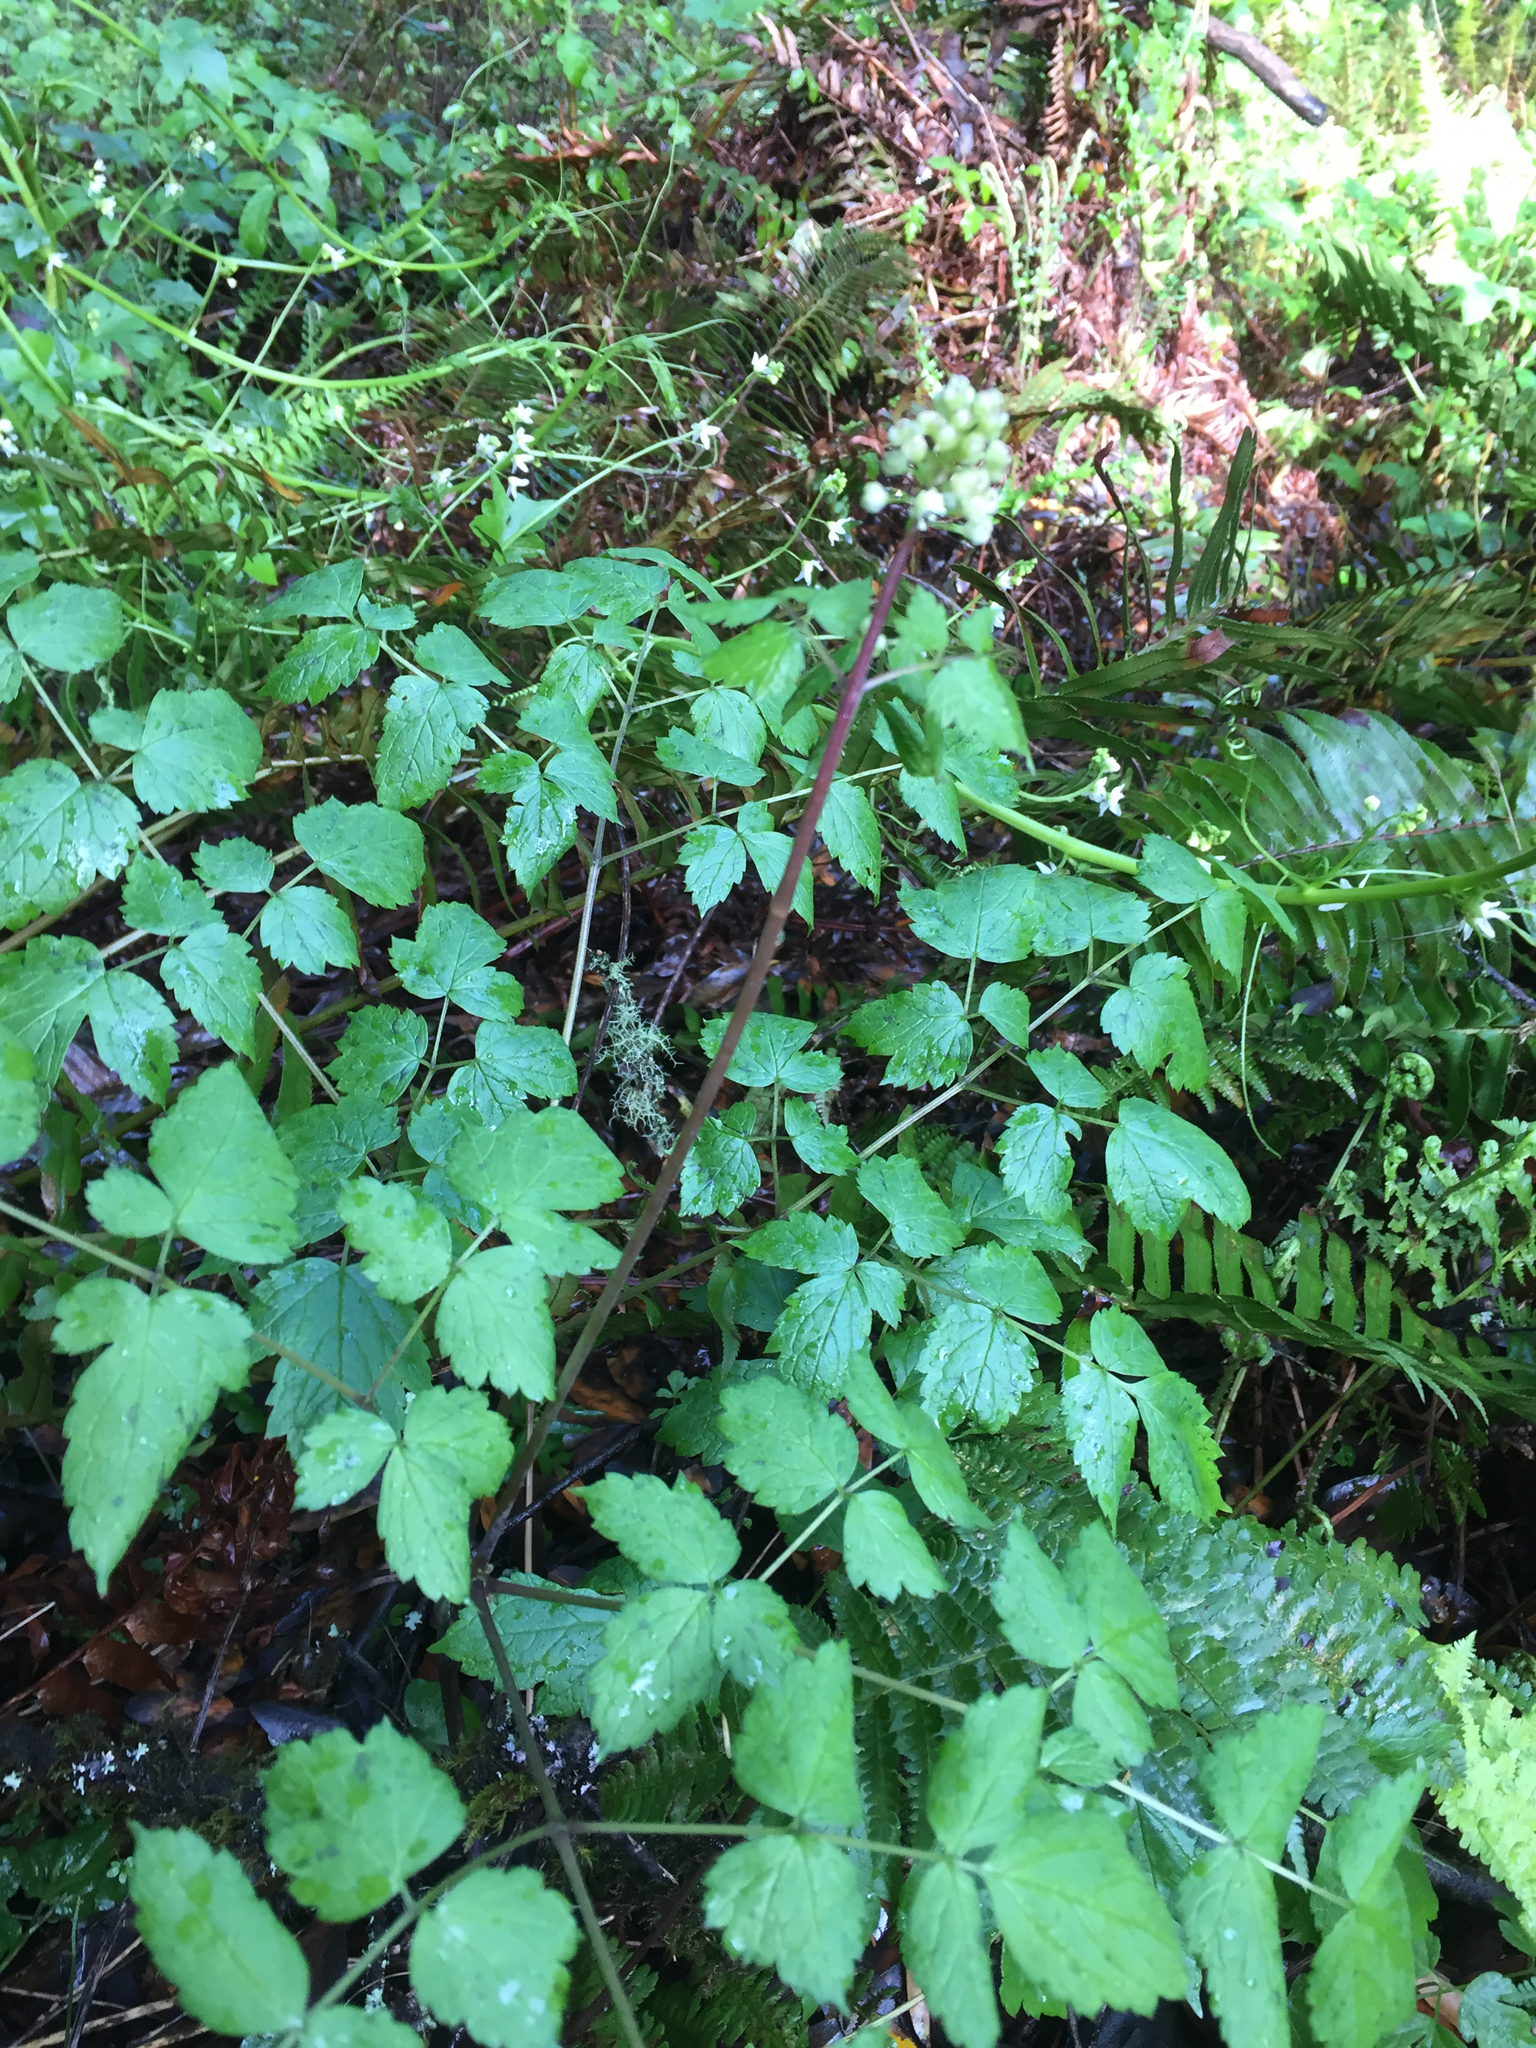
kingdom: Plantae
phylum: Tracheophyta
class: Magnoliopsida
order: Ranunculales
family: Ranunculaceae
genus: Actaea
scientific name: Actaea rubra
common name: Red baneberry
